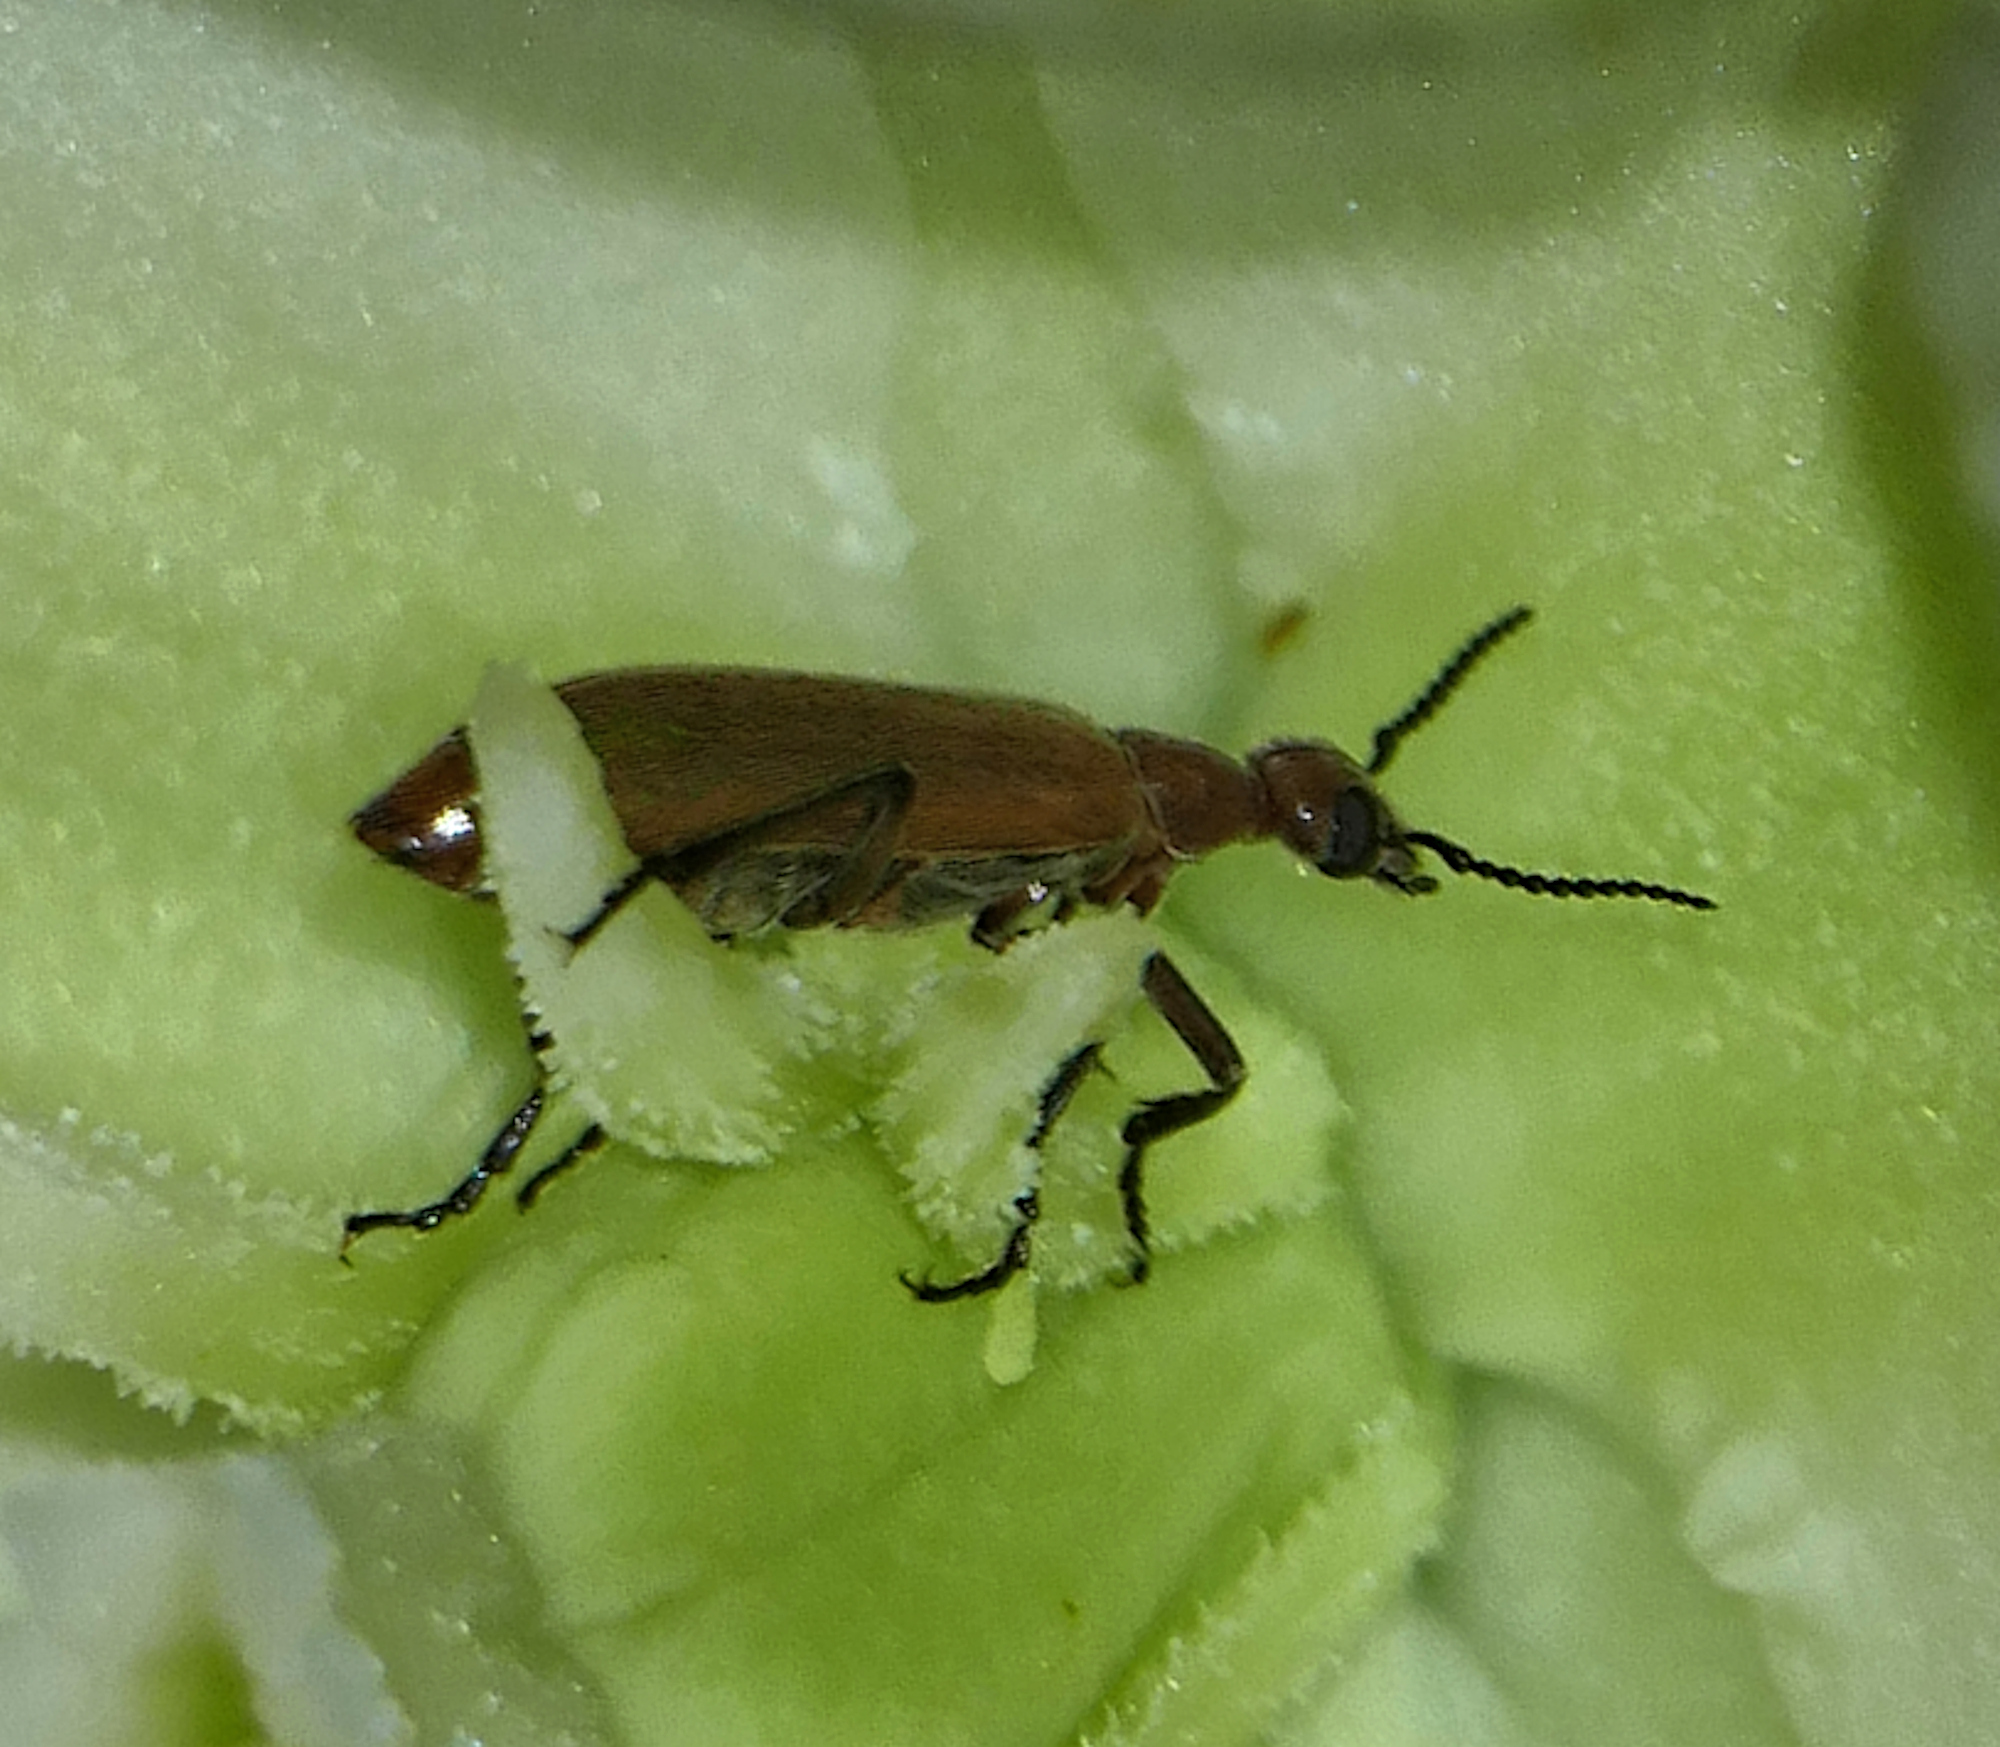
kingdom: Animalia
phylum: Arthropoda
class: Insecta
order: Coleoptera
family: Meloidae
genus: Epicauta
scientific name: Epicauta ochrea
